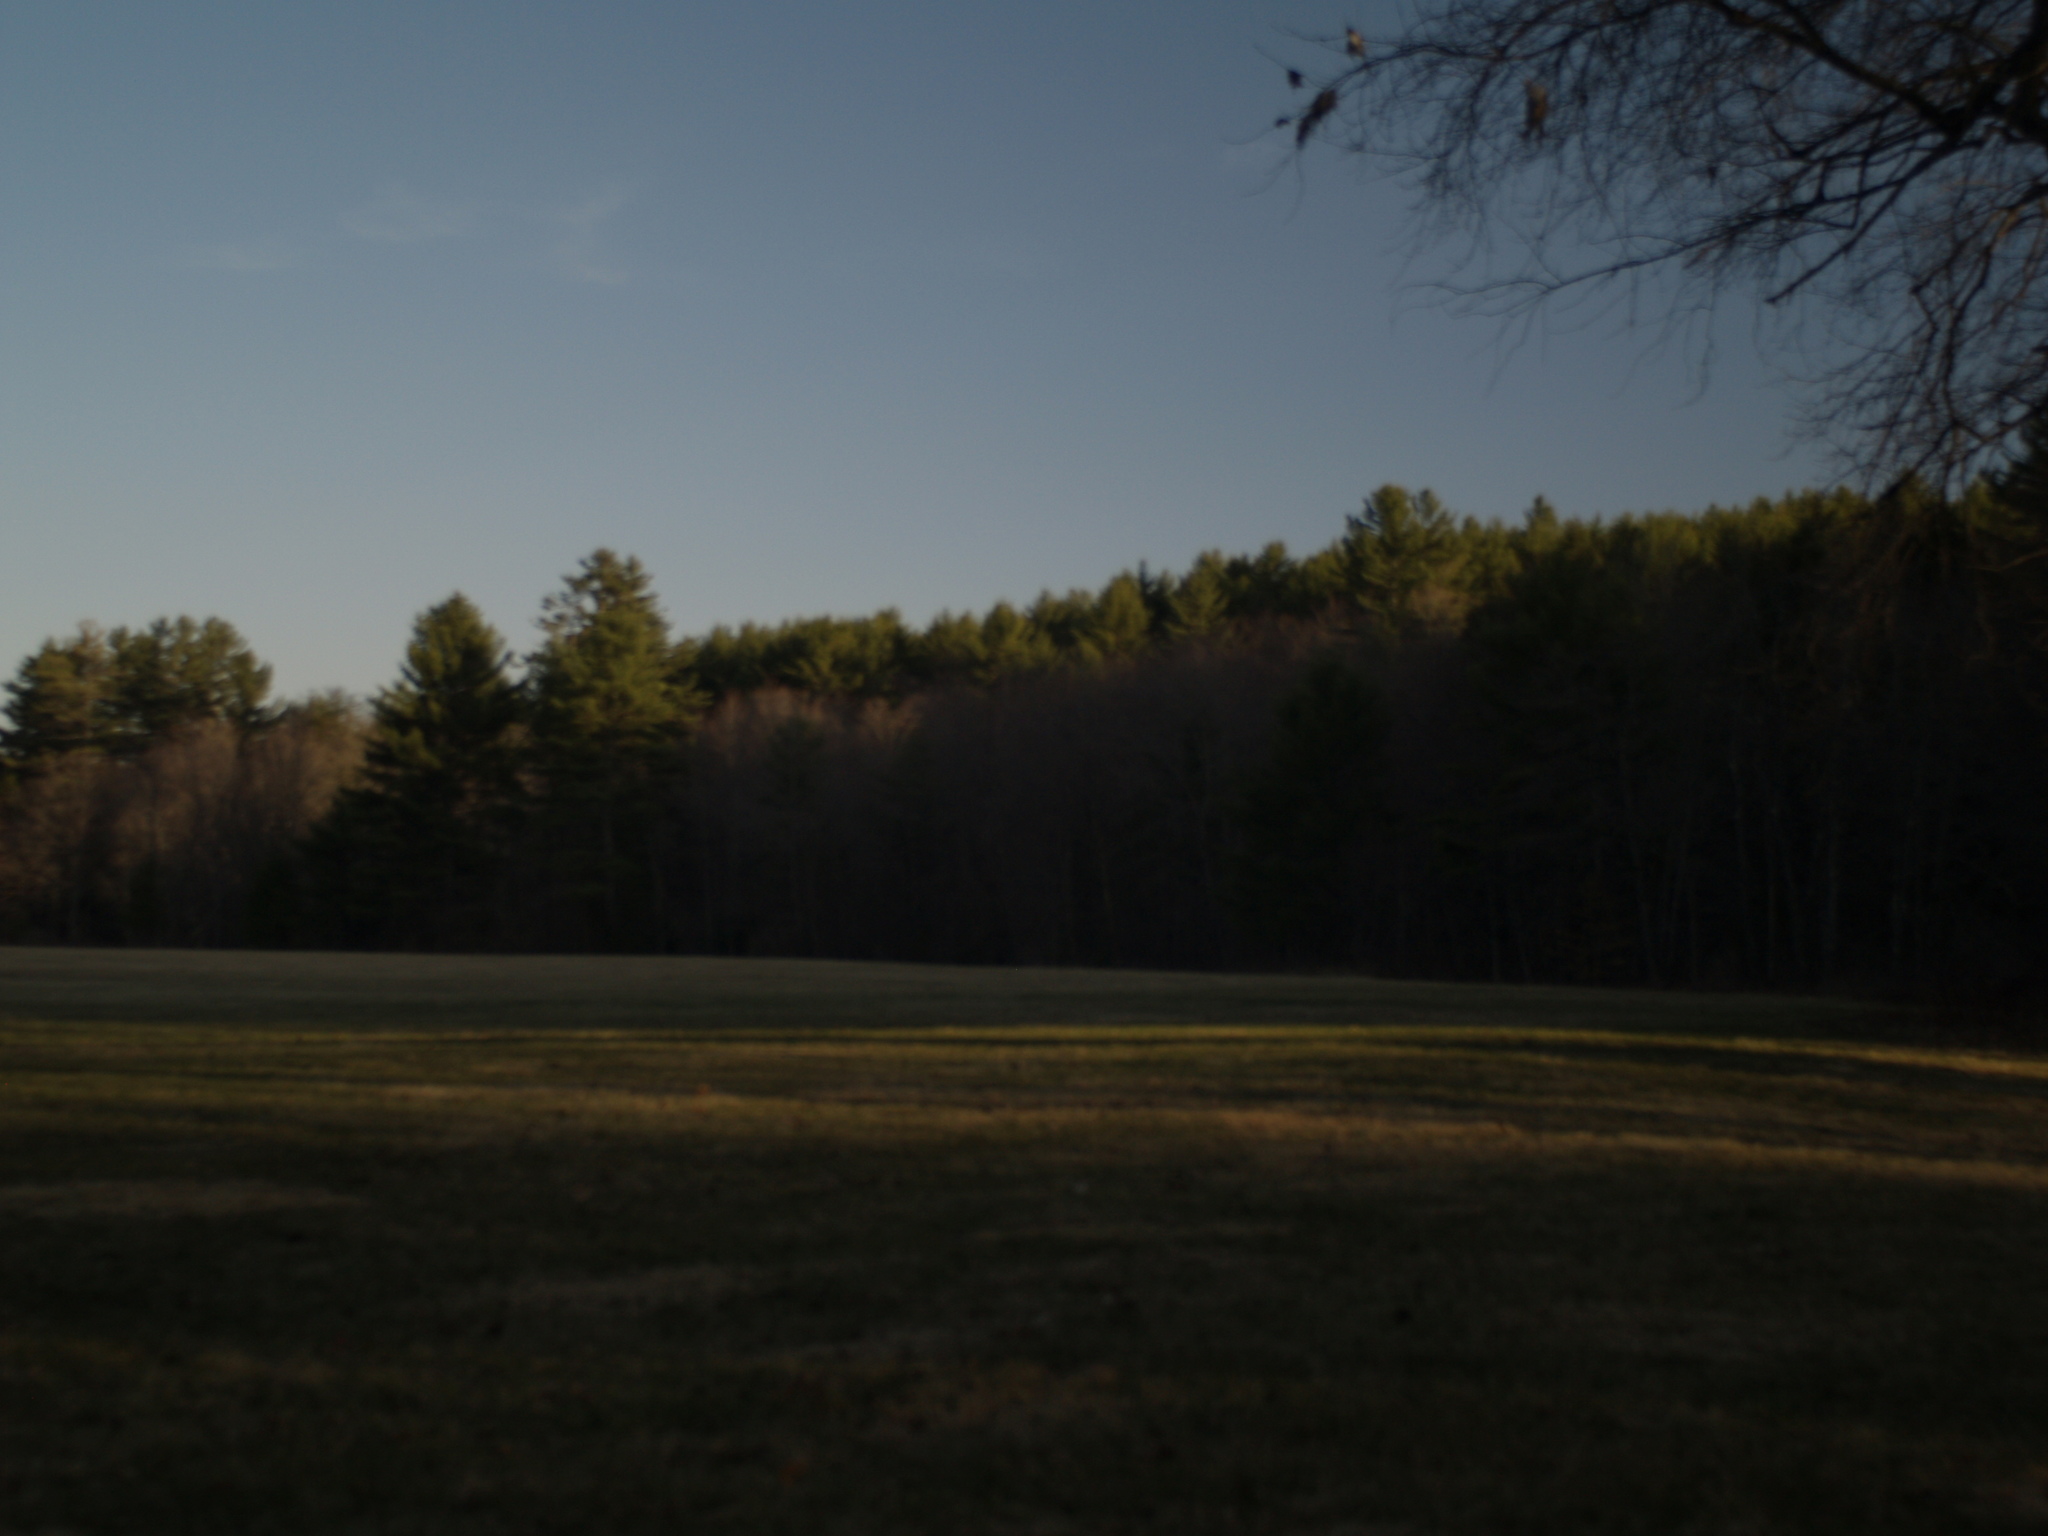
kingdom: Plantae
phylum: Tracheophyta
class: Pinopsida
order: Pinales
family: Pinaceae
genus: Pinus
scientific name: Pinus strobus
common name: Weymouth pine
